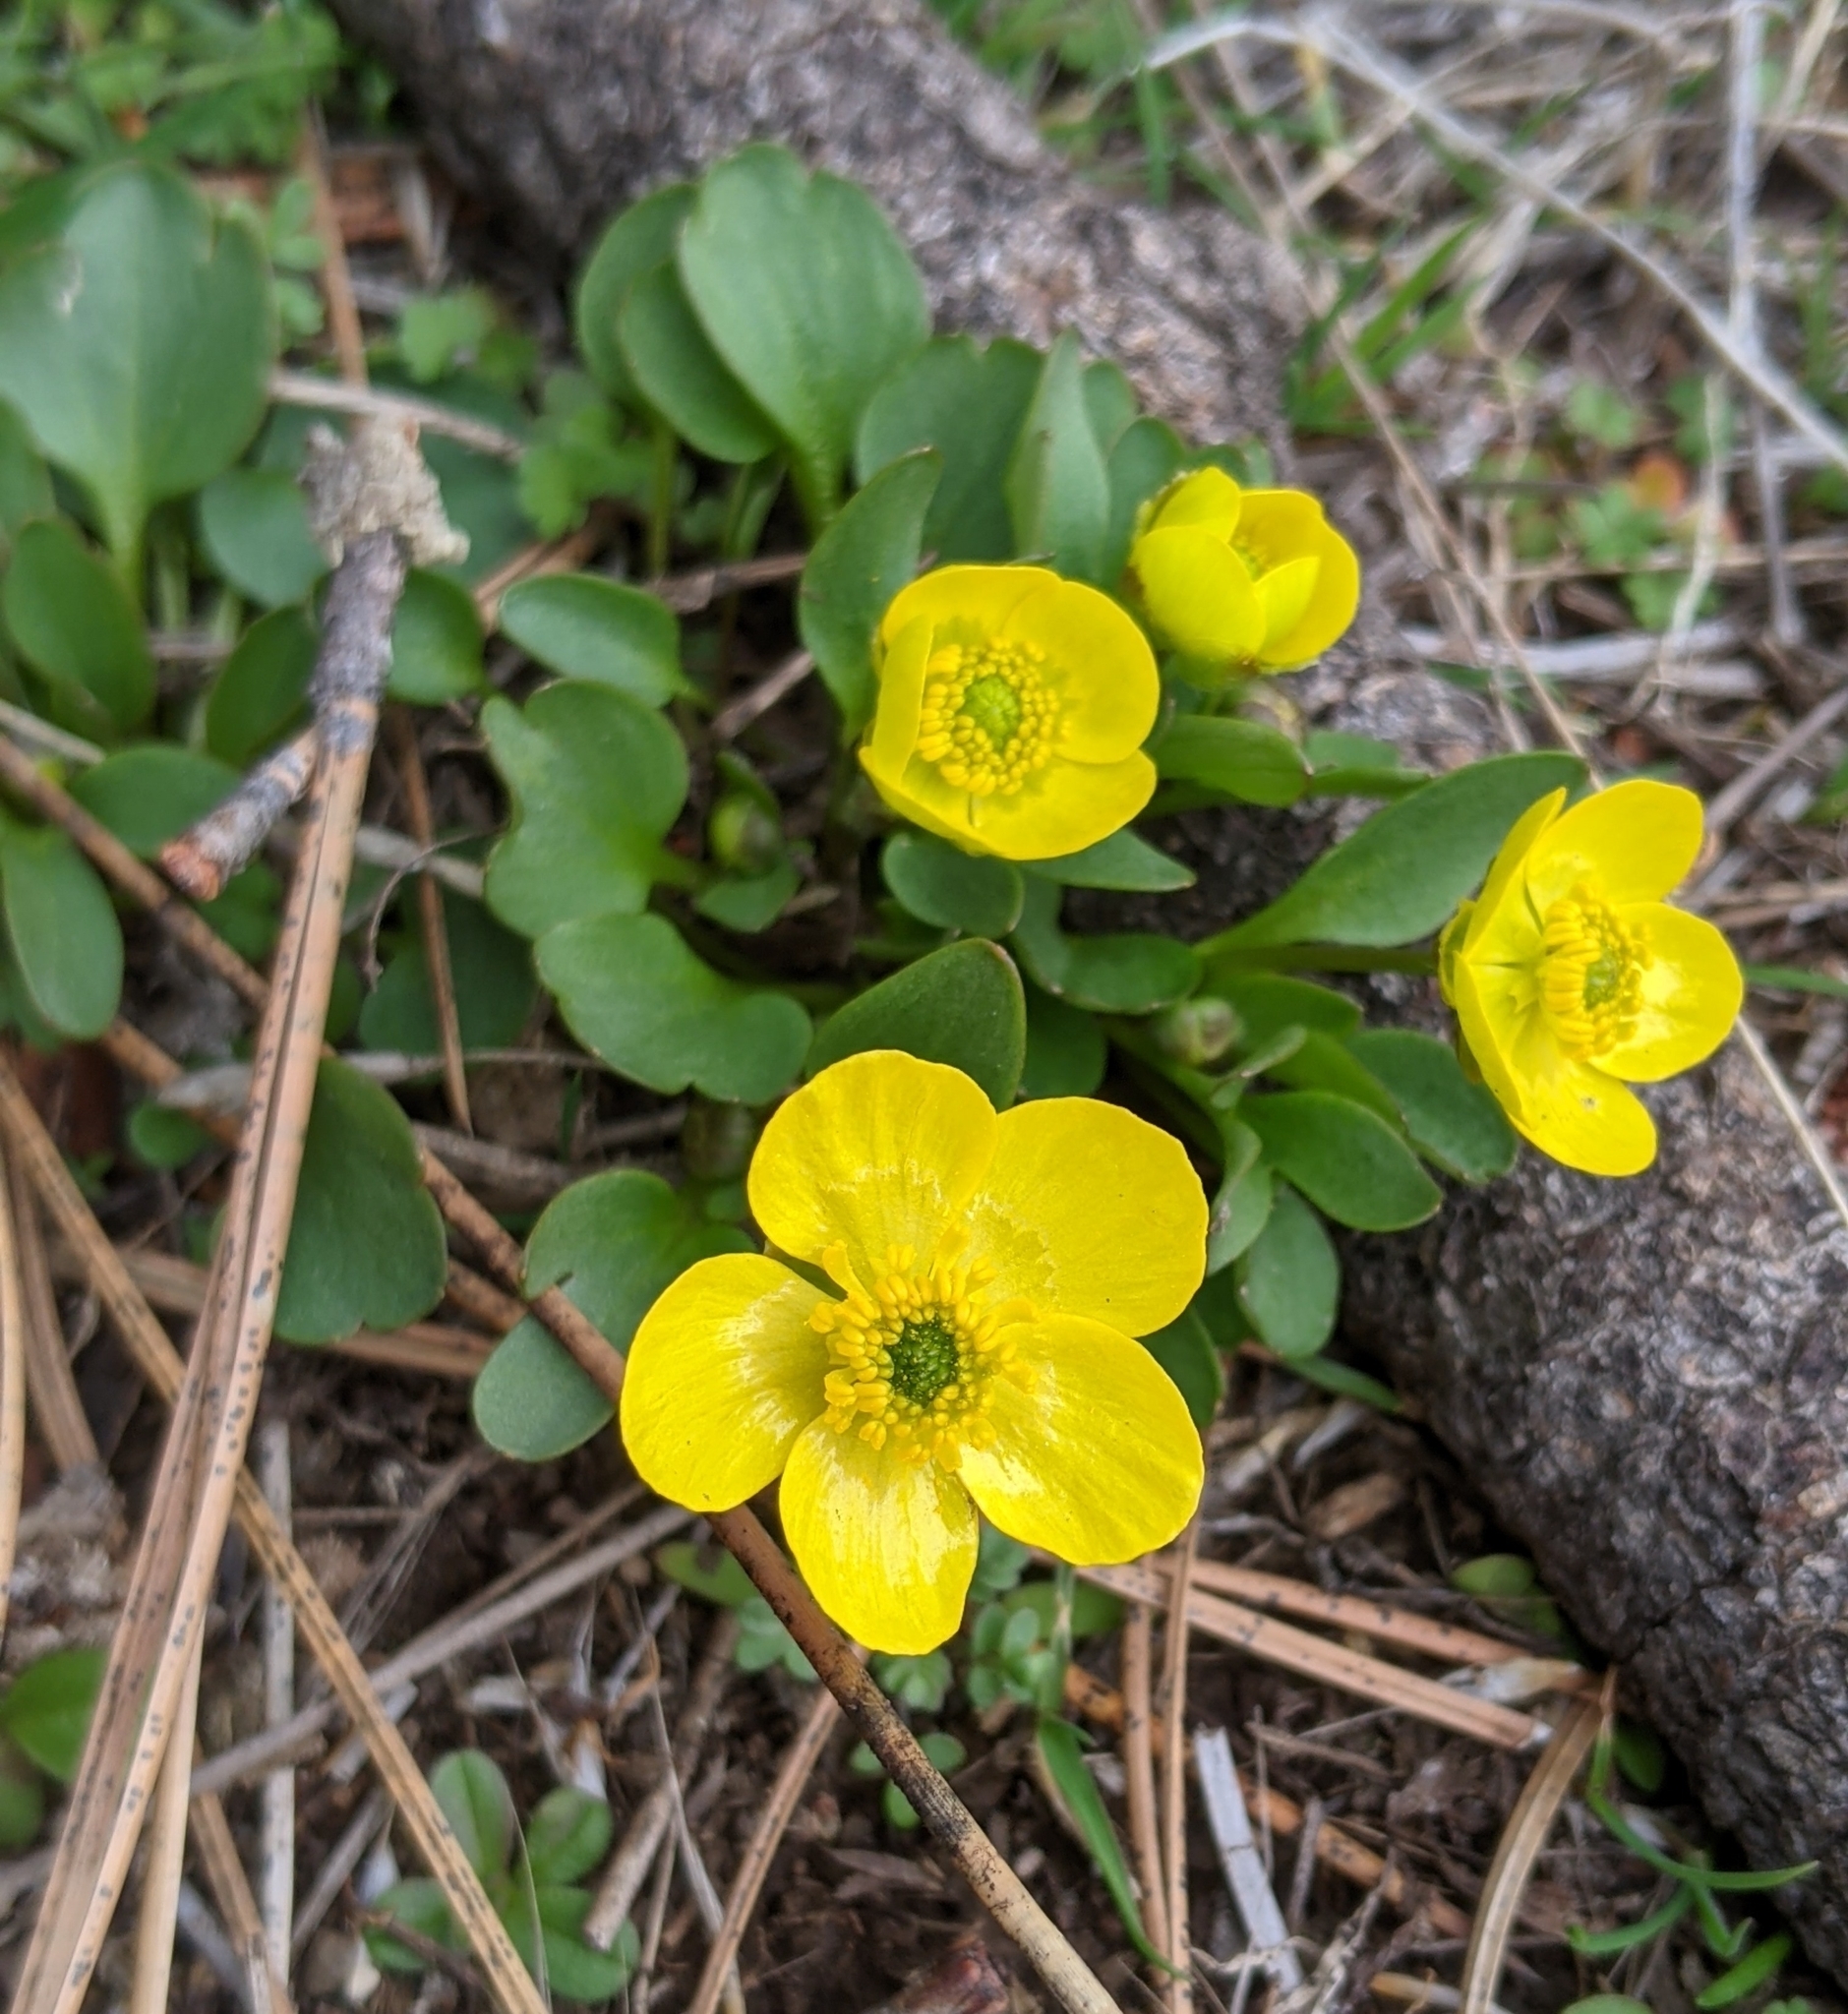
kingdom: Plantae
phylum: Tracheophyta
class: Magnoliopsida
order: Ranunculales
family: Ranunculaceae
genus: Ranunculus
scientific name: Ranunculus glaberrimus
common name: Sagebrush buttercup
